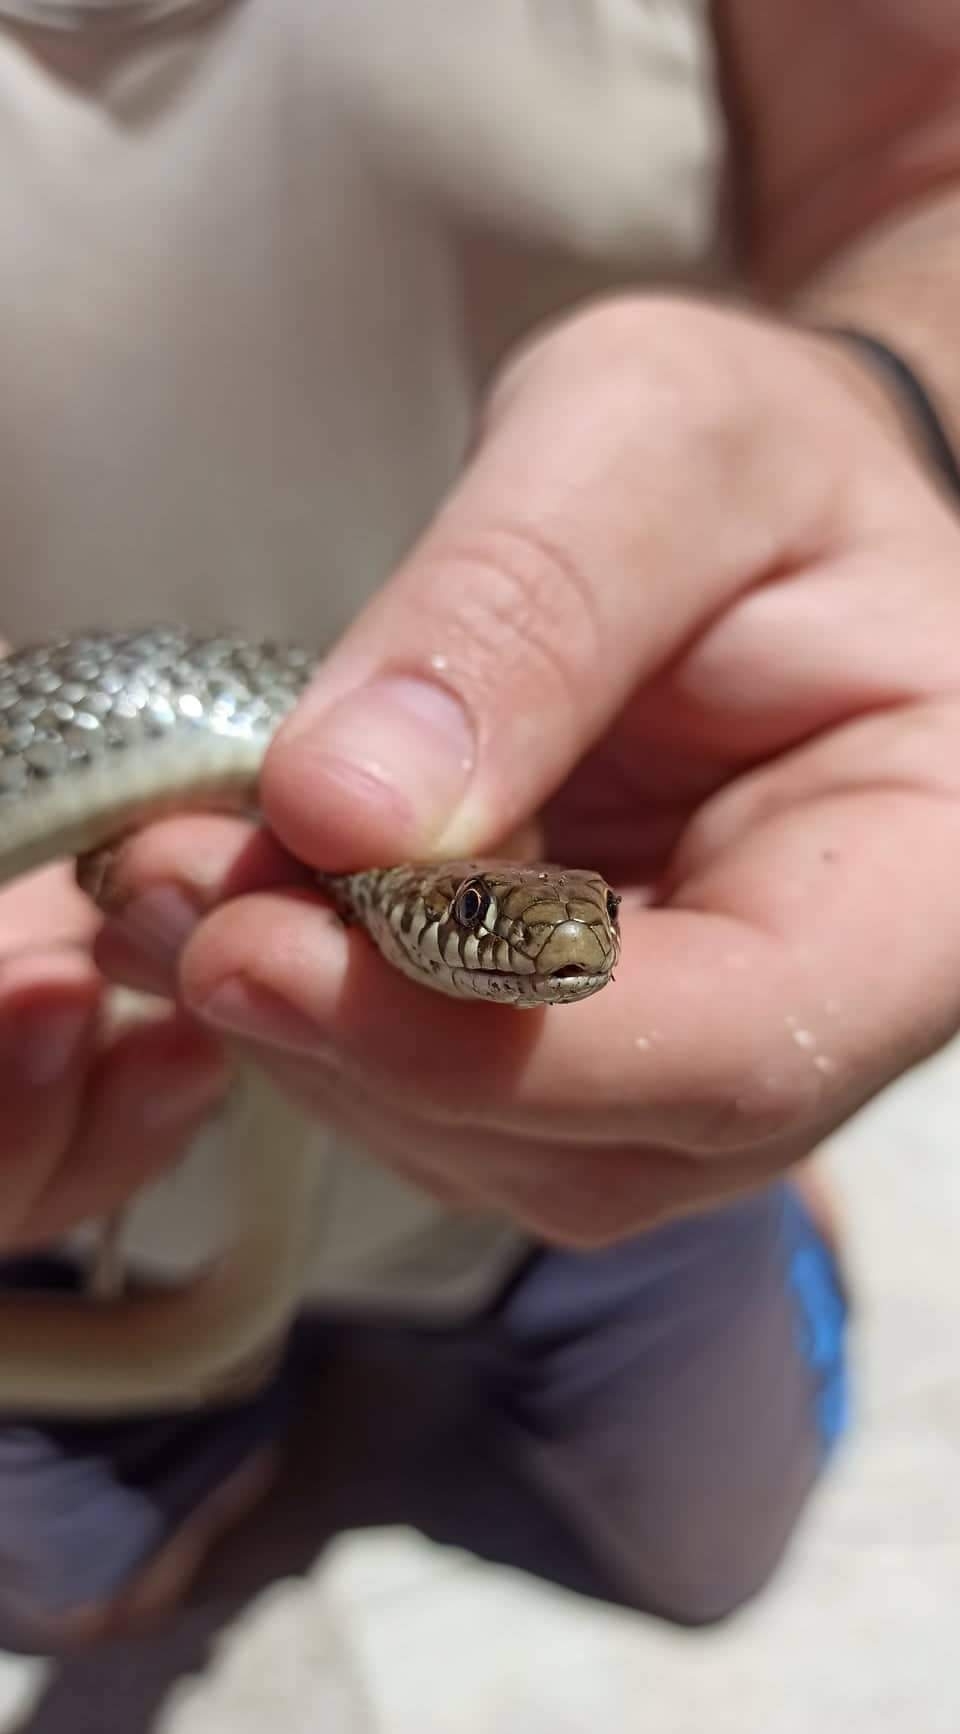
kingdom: Animalia
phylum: Chordata
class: Squamata
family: Colubridae
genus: Hierophis
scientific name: Hierophis gemonensis
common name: Balkan whip snake
